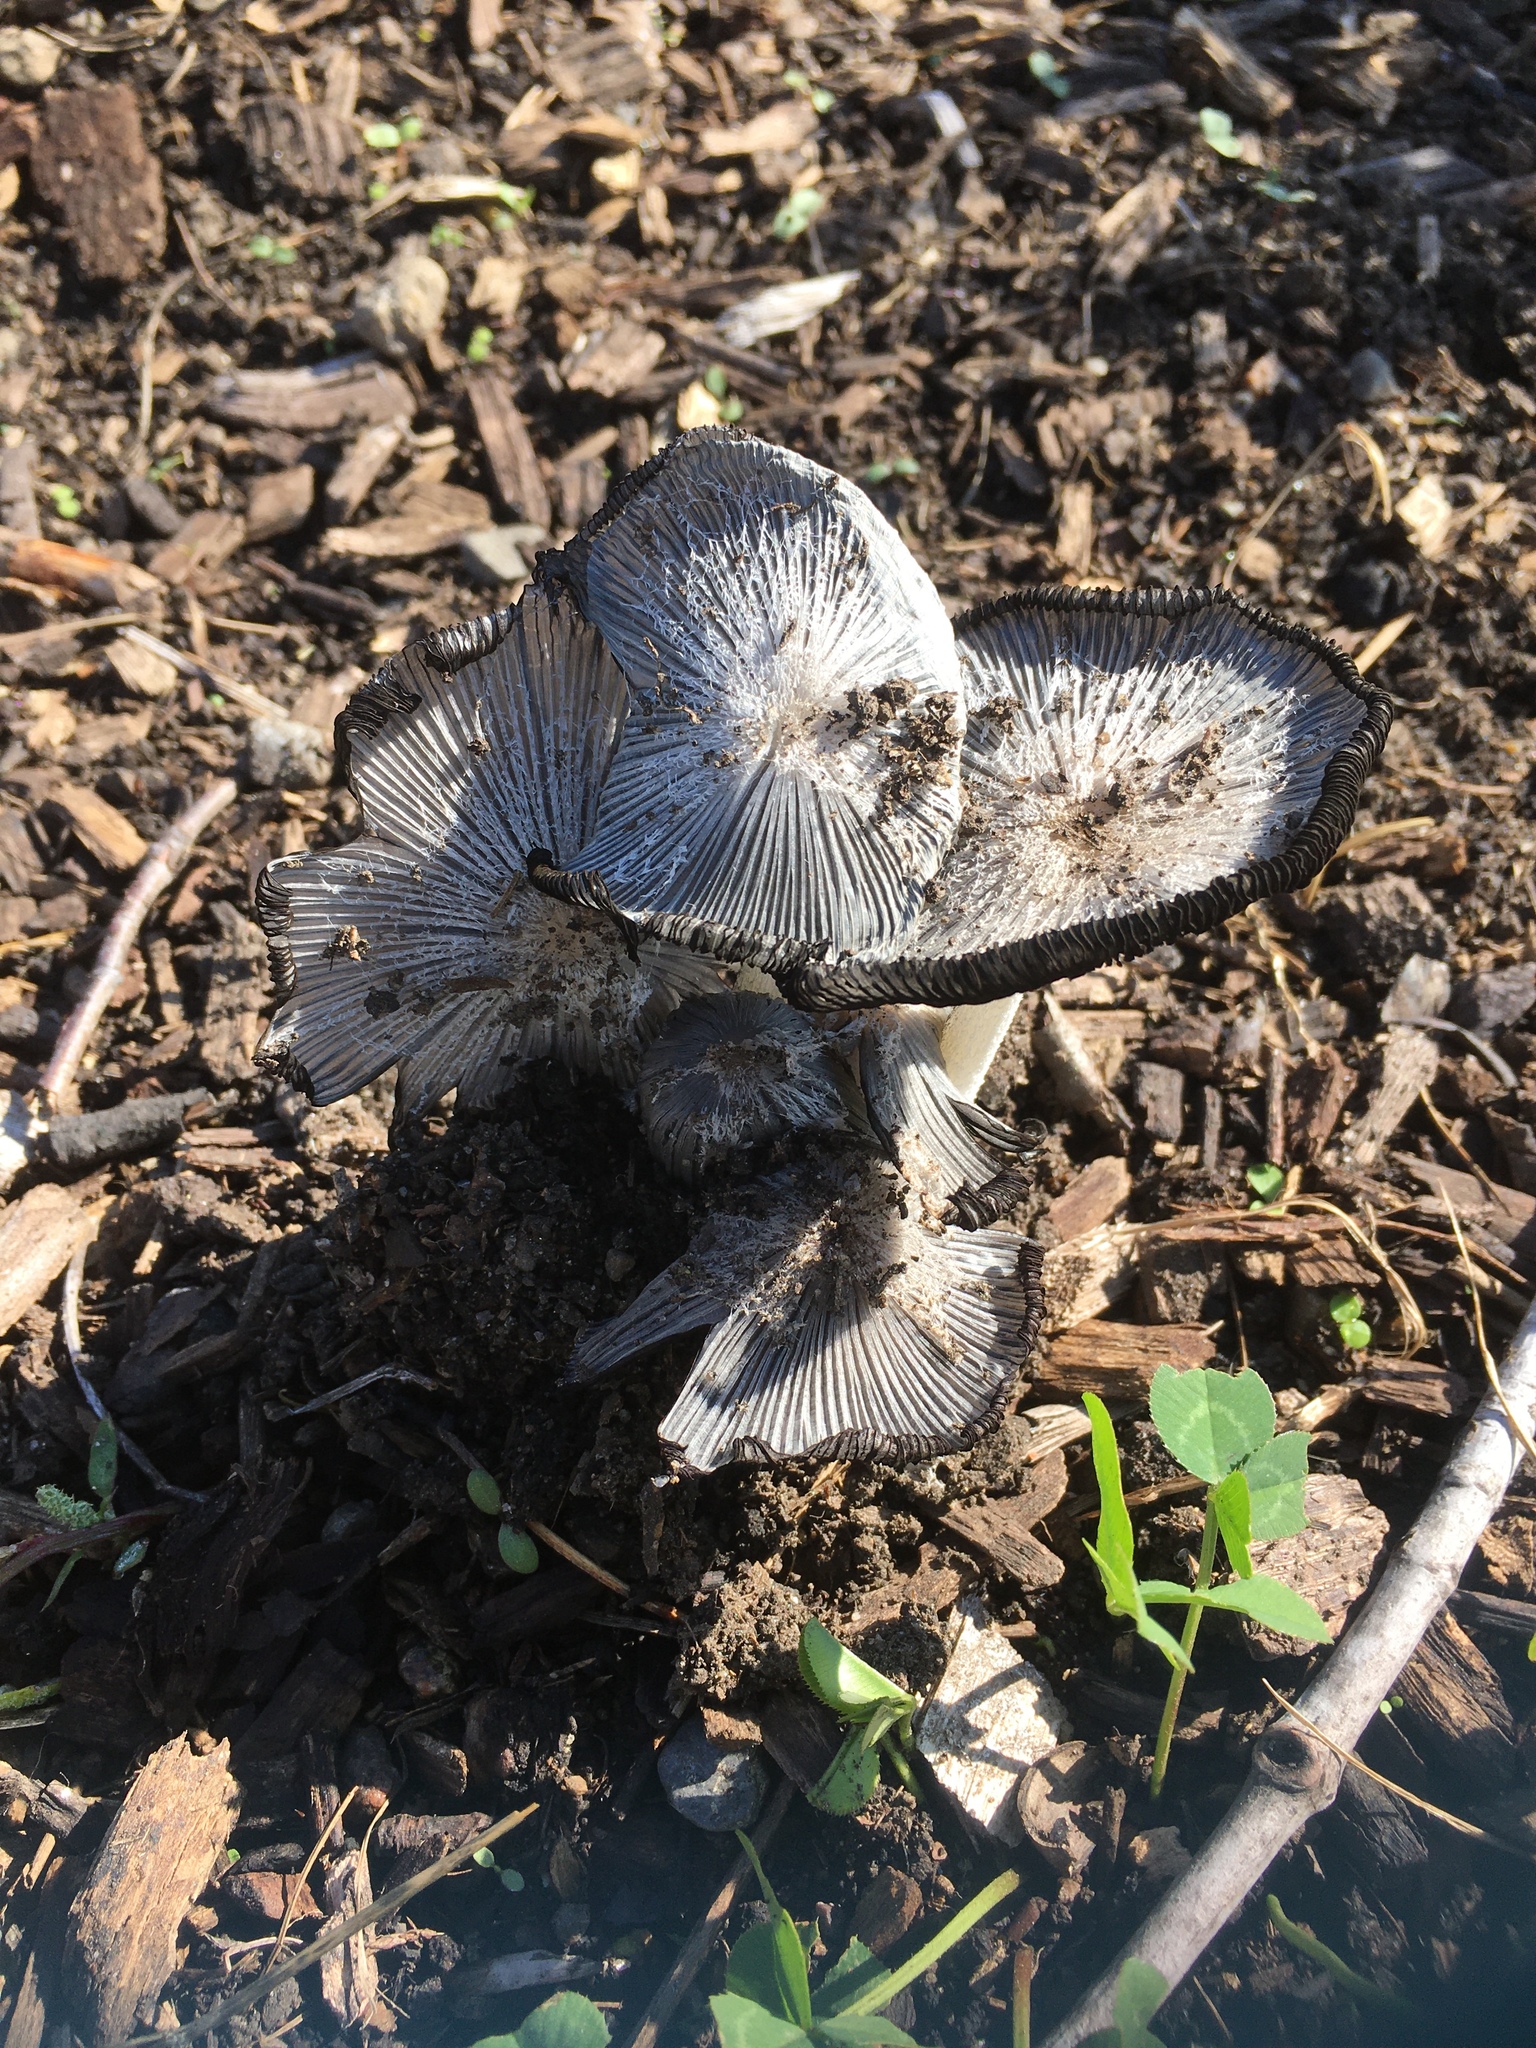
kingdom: Fungi
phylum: Basidiomycota
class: Agaricomycetes
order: Agaricales
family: Psathyrellaceae
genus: Coprinopsis
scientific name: Coprinopsis lagopus
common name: Hare'sfoot inkcap
